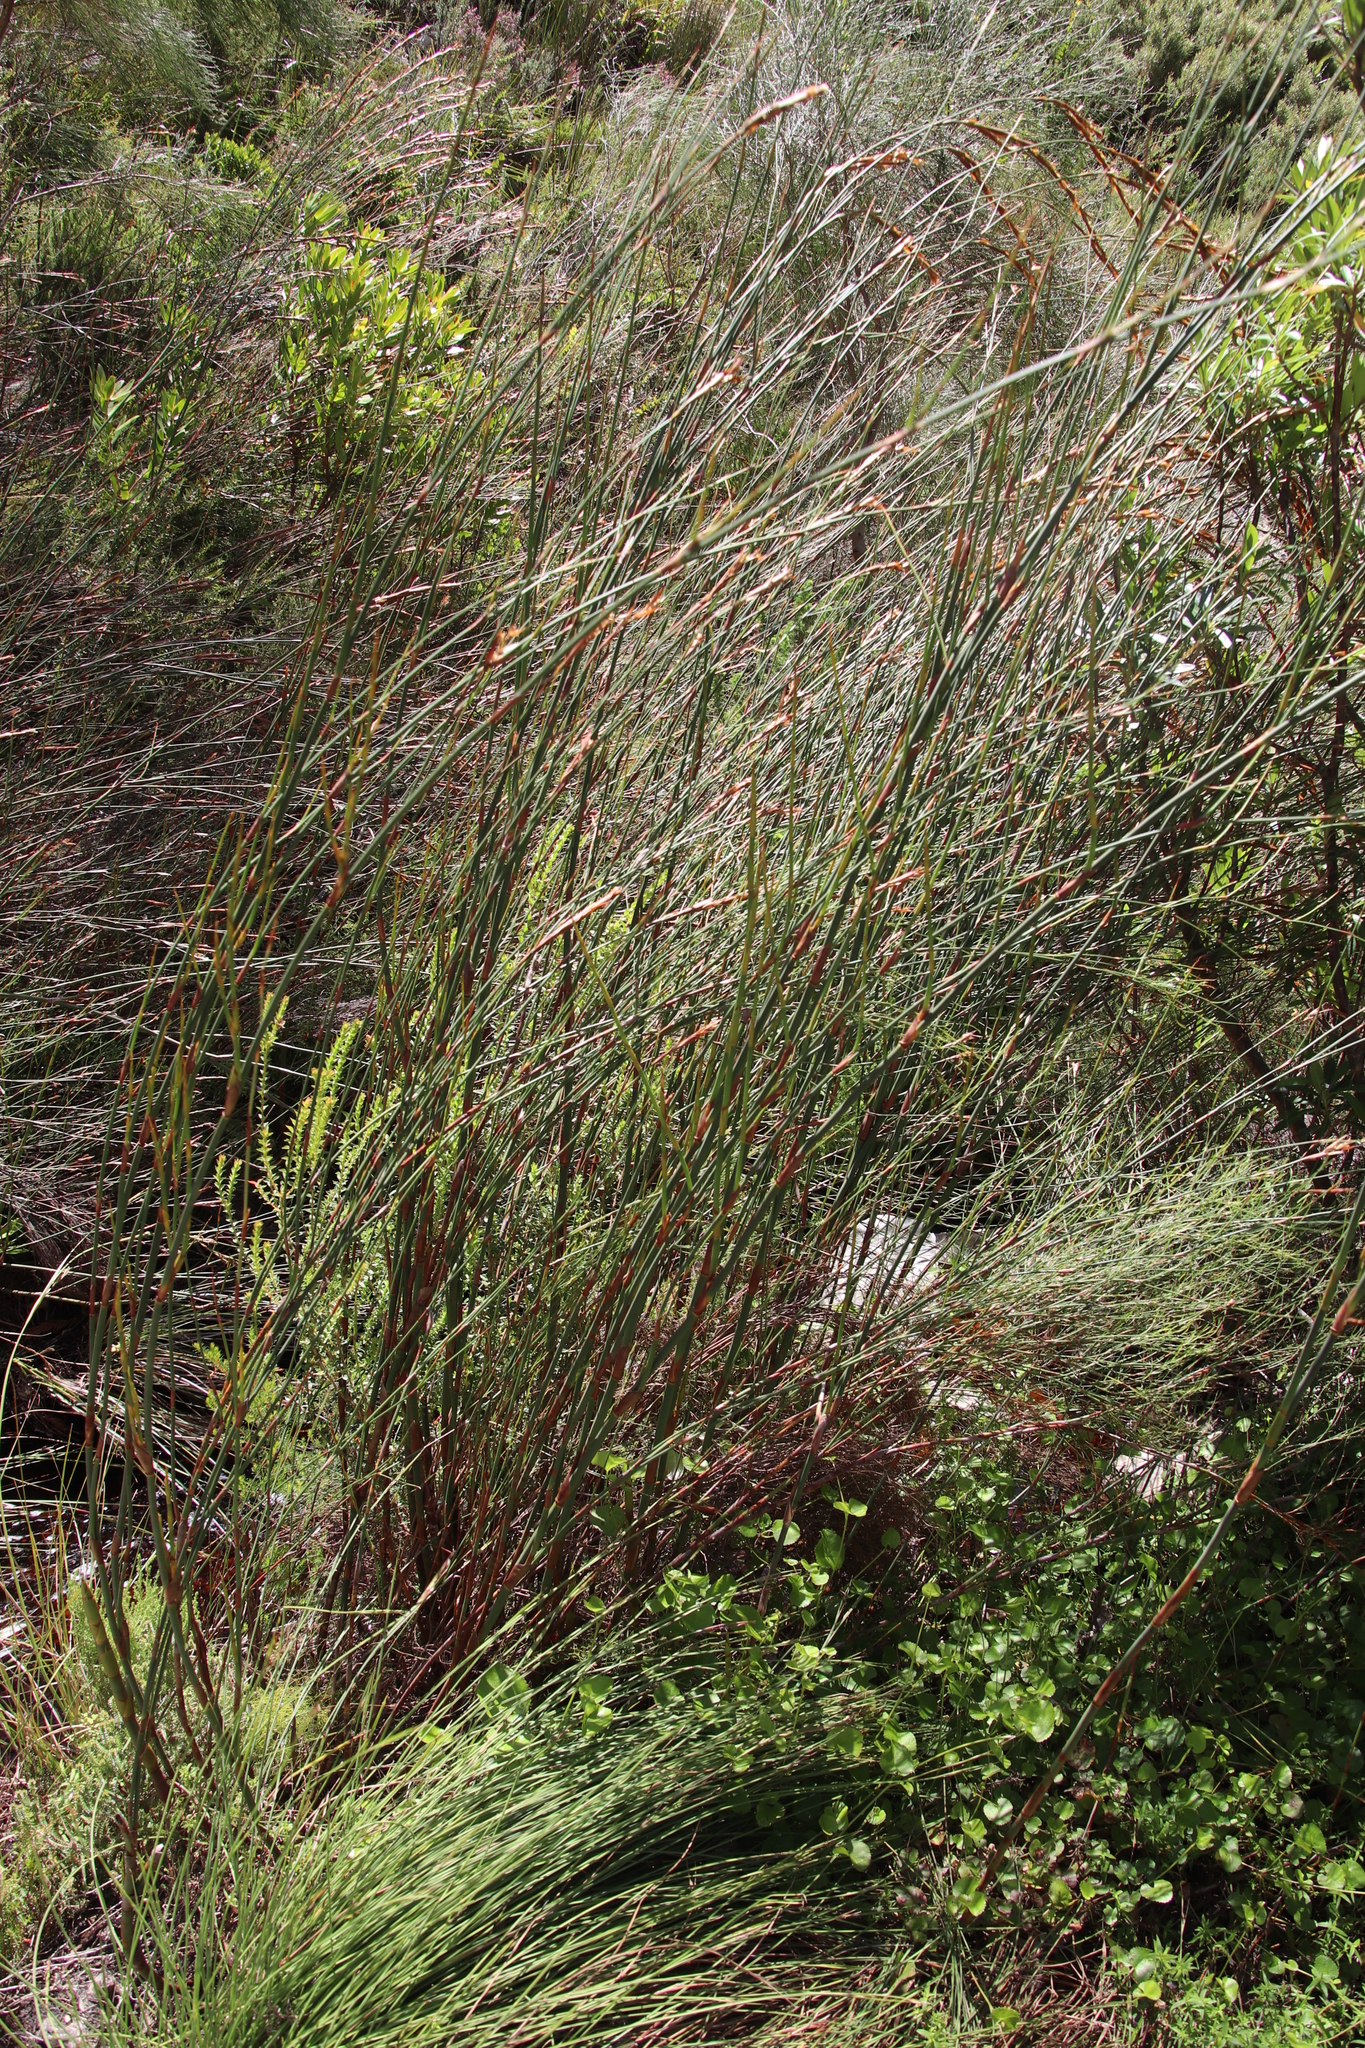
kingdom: Plantae
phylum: Tracheophyta
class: Liliopsida
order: Poales
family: Restionaceae
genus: Restio
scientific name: Restio dispar
